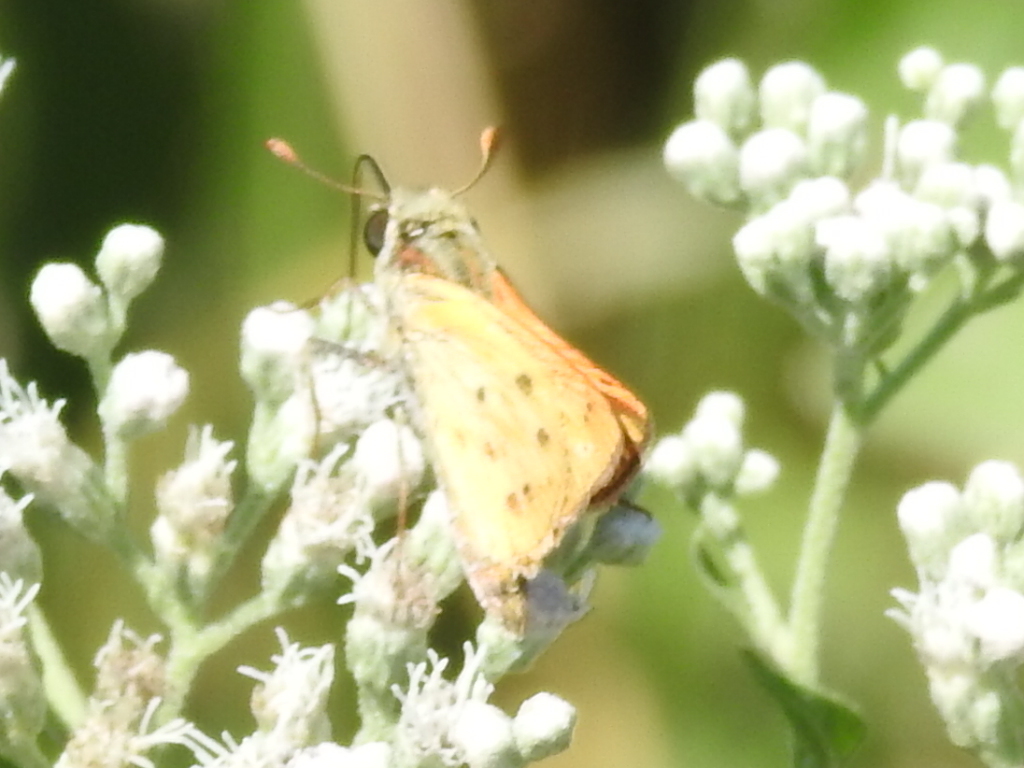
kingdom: Animalia
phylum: Arthropoda
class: Insecta
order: Lepidoptera
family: Hesperiidae
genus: Hylephila
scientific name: Hylephila phyleus
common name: Fiery skipper
